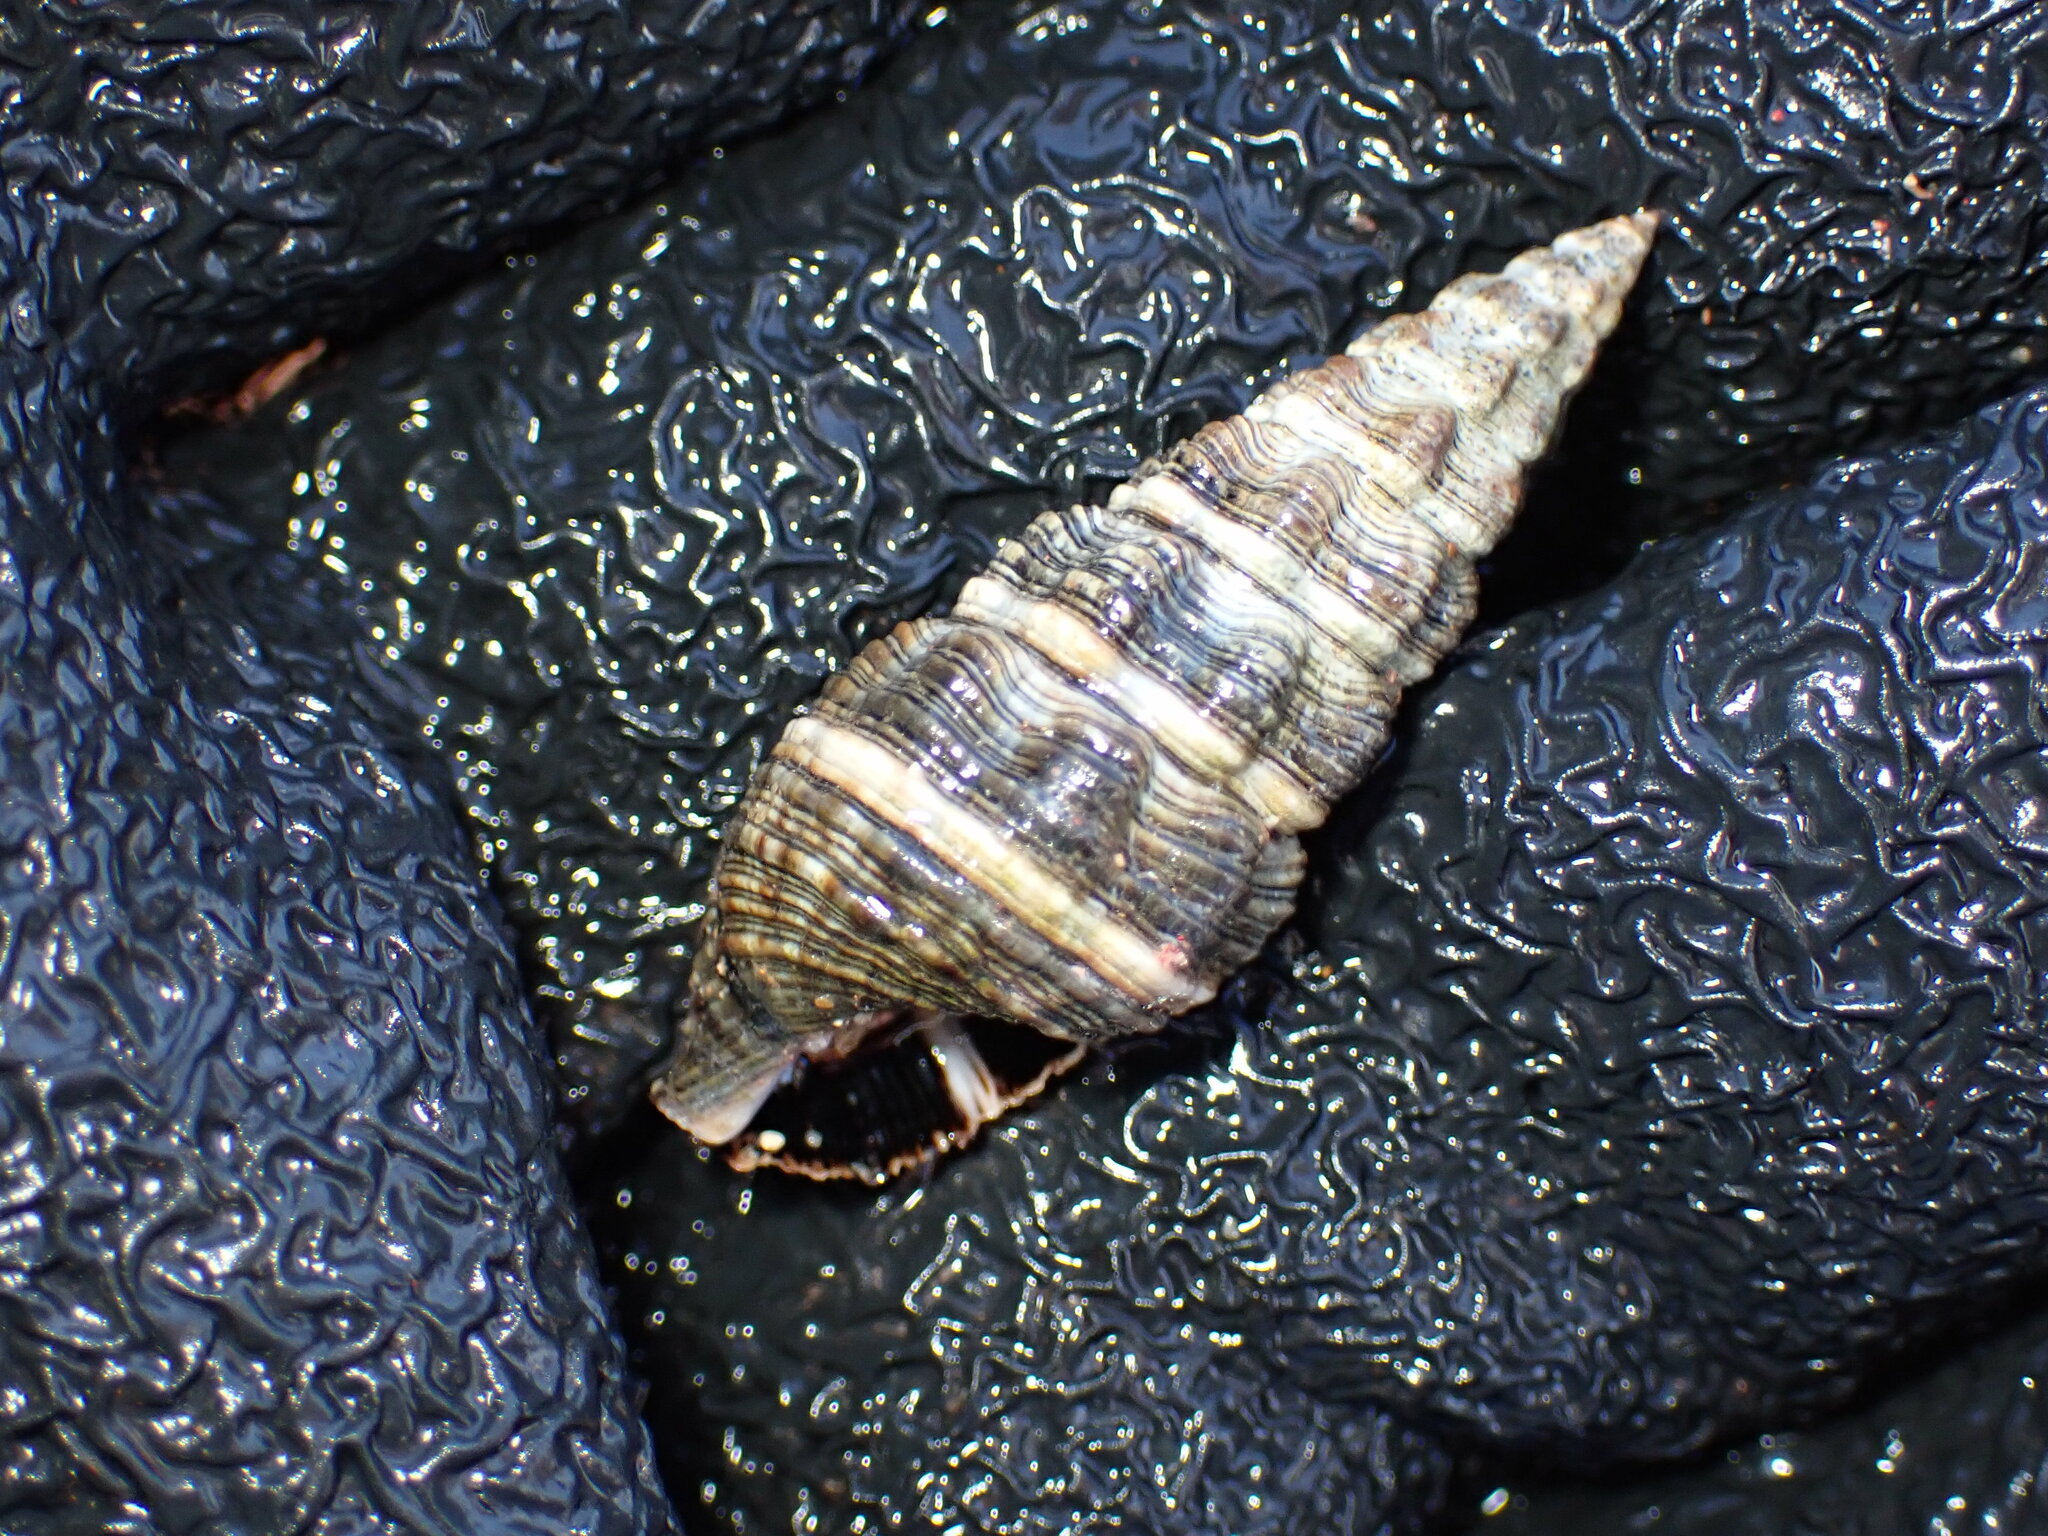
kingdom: Animalia
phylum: Mollusca
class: Gastropoda
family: Batillariidae
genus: Batillaria
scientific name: Batillaria australis
